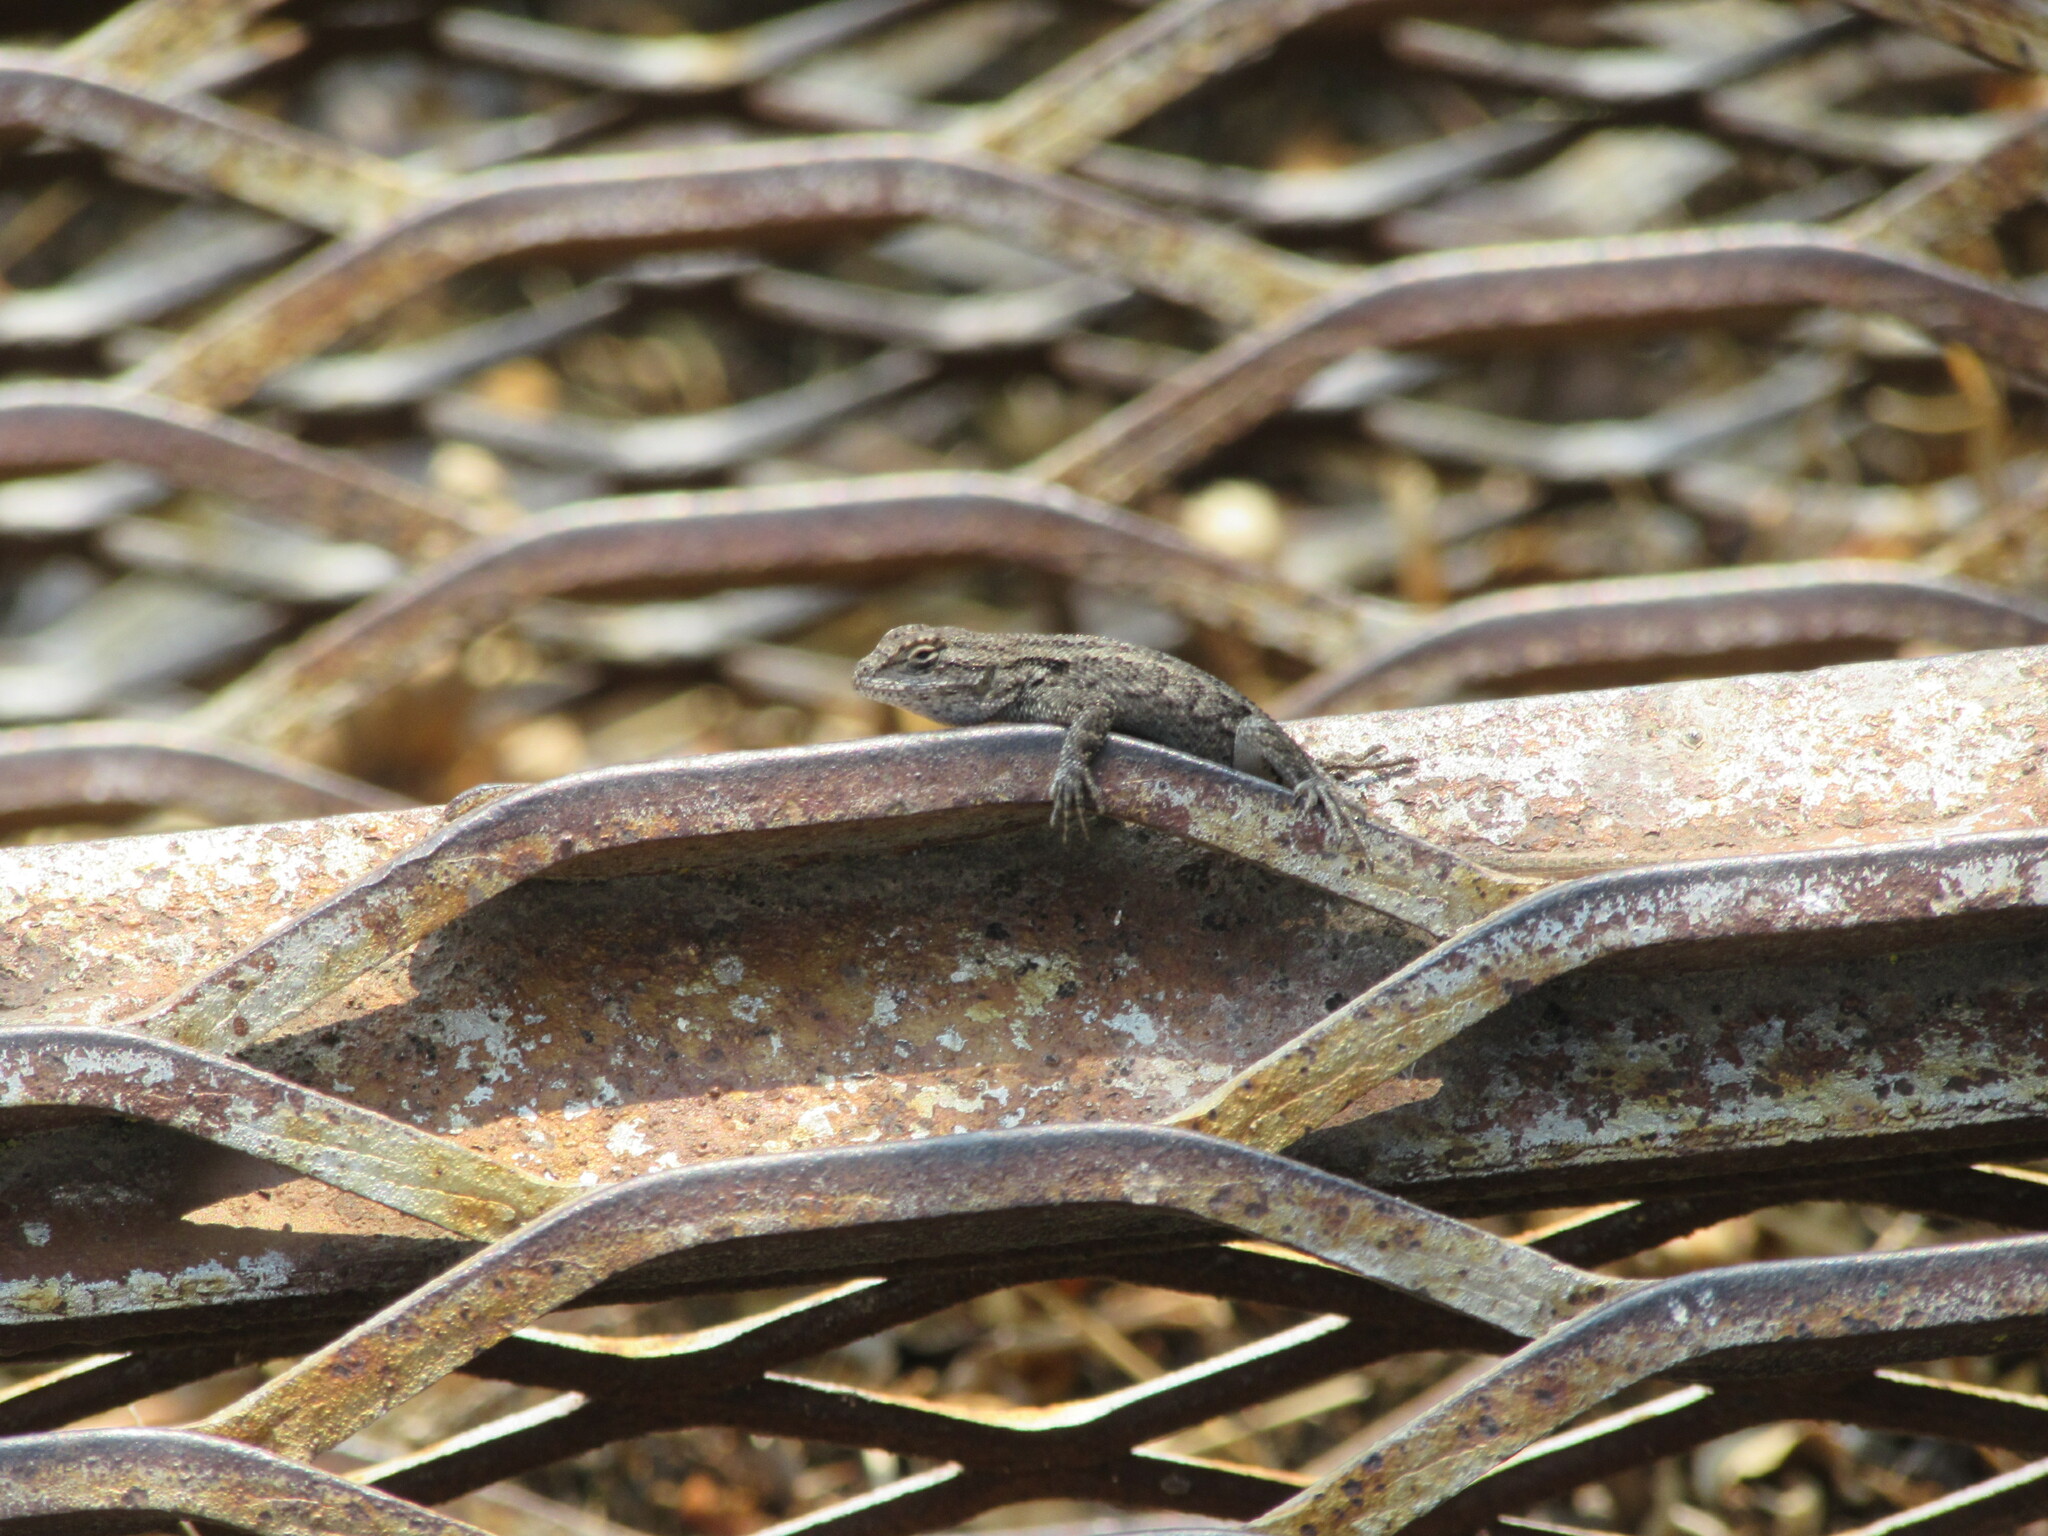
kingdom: Animalia
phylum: Chordata
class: Squamata
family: Phrynosomatidae
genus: Sceloporus
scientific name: Sceloporus occidentalis
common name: Western fence lizard
